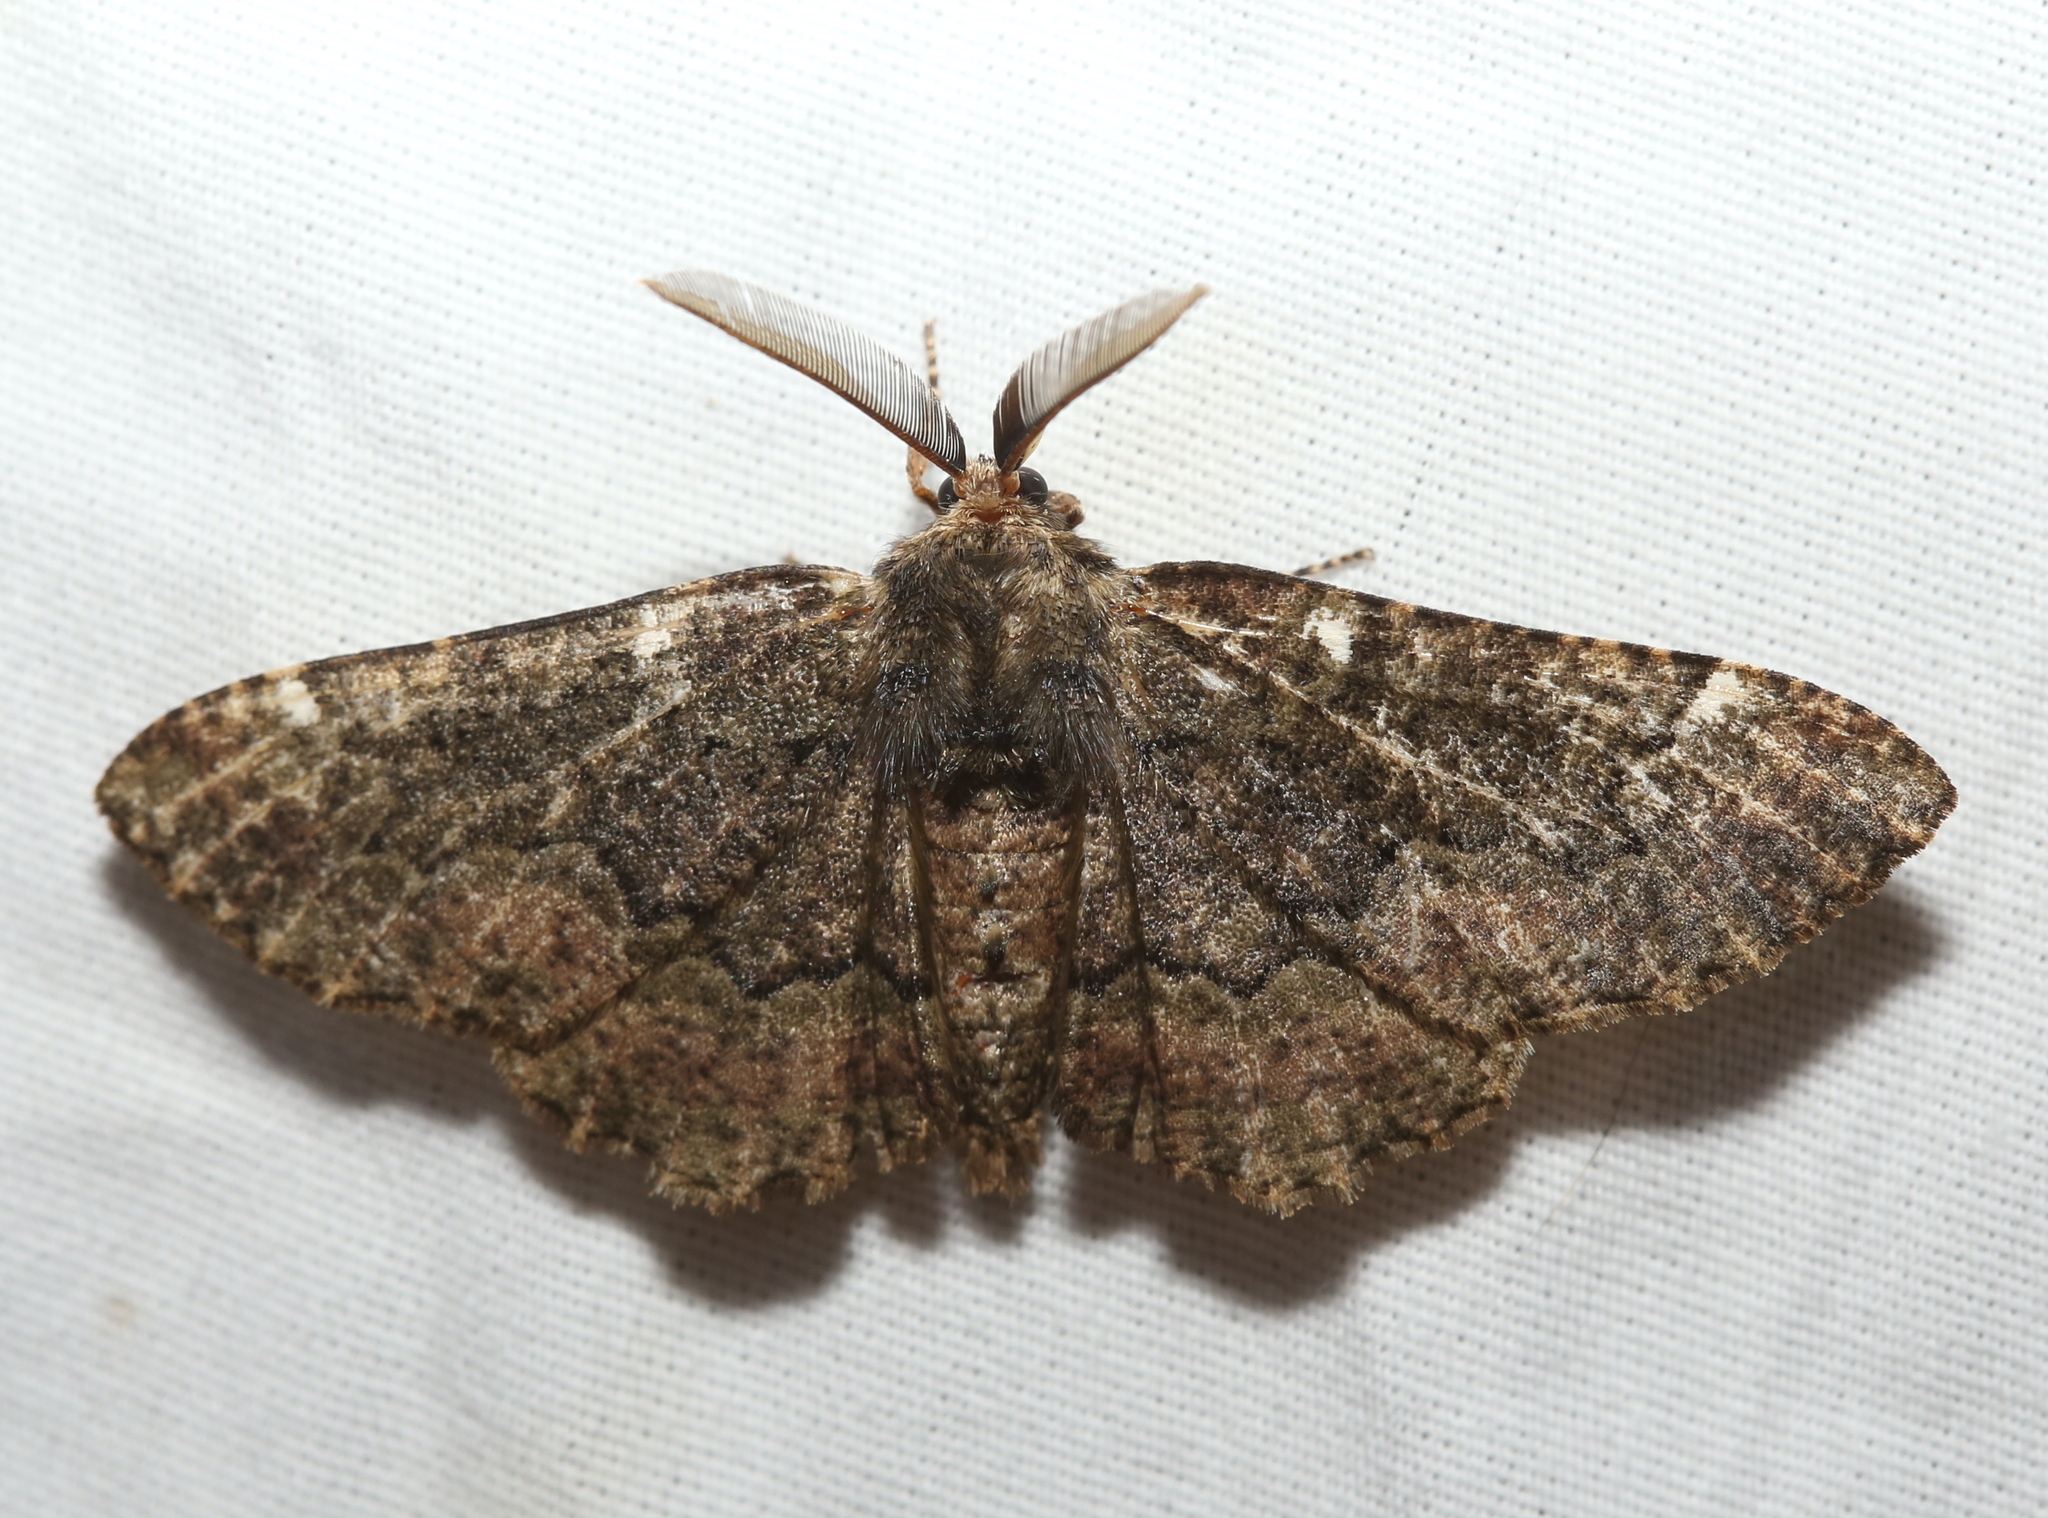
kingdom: Animalia
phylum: Arthropoda
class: Insecta
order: Lepidoptera
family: Geometridae
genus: Phaeoura
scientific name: Phaeoura quernaria
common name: Oak beauty
